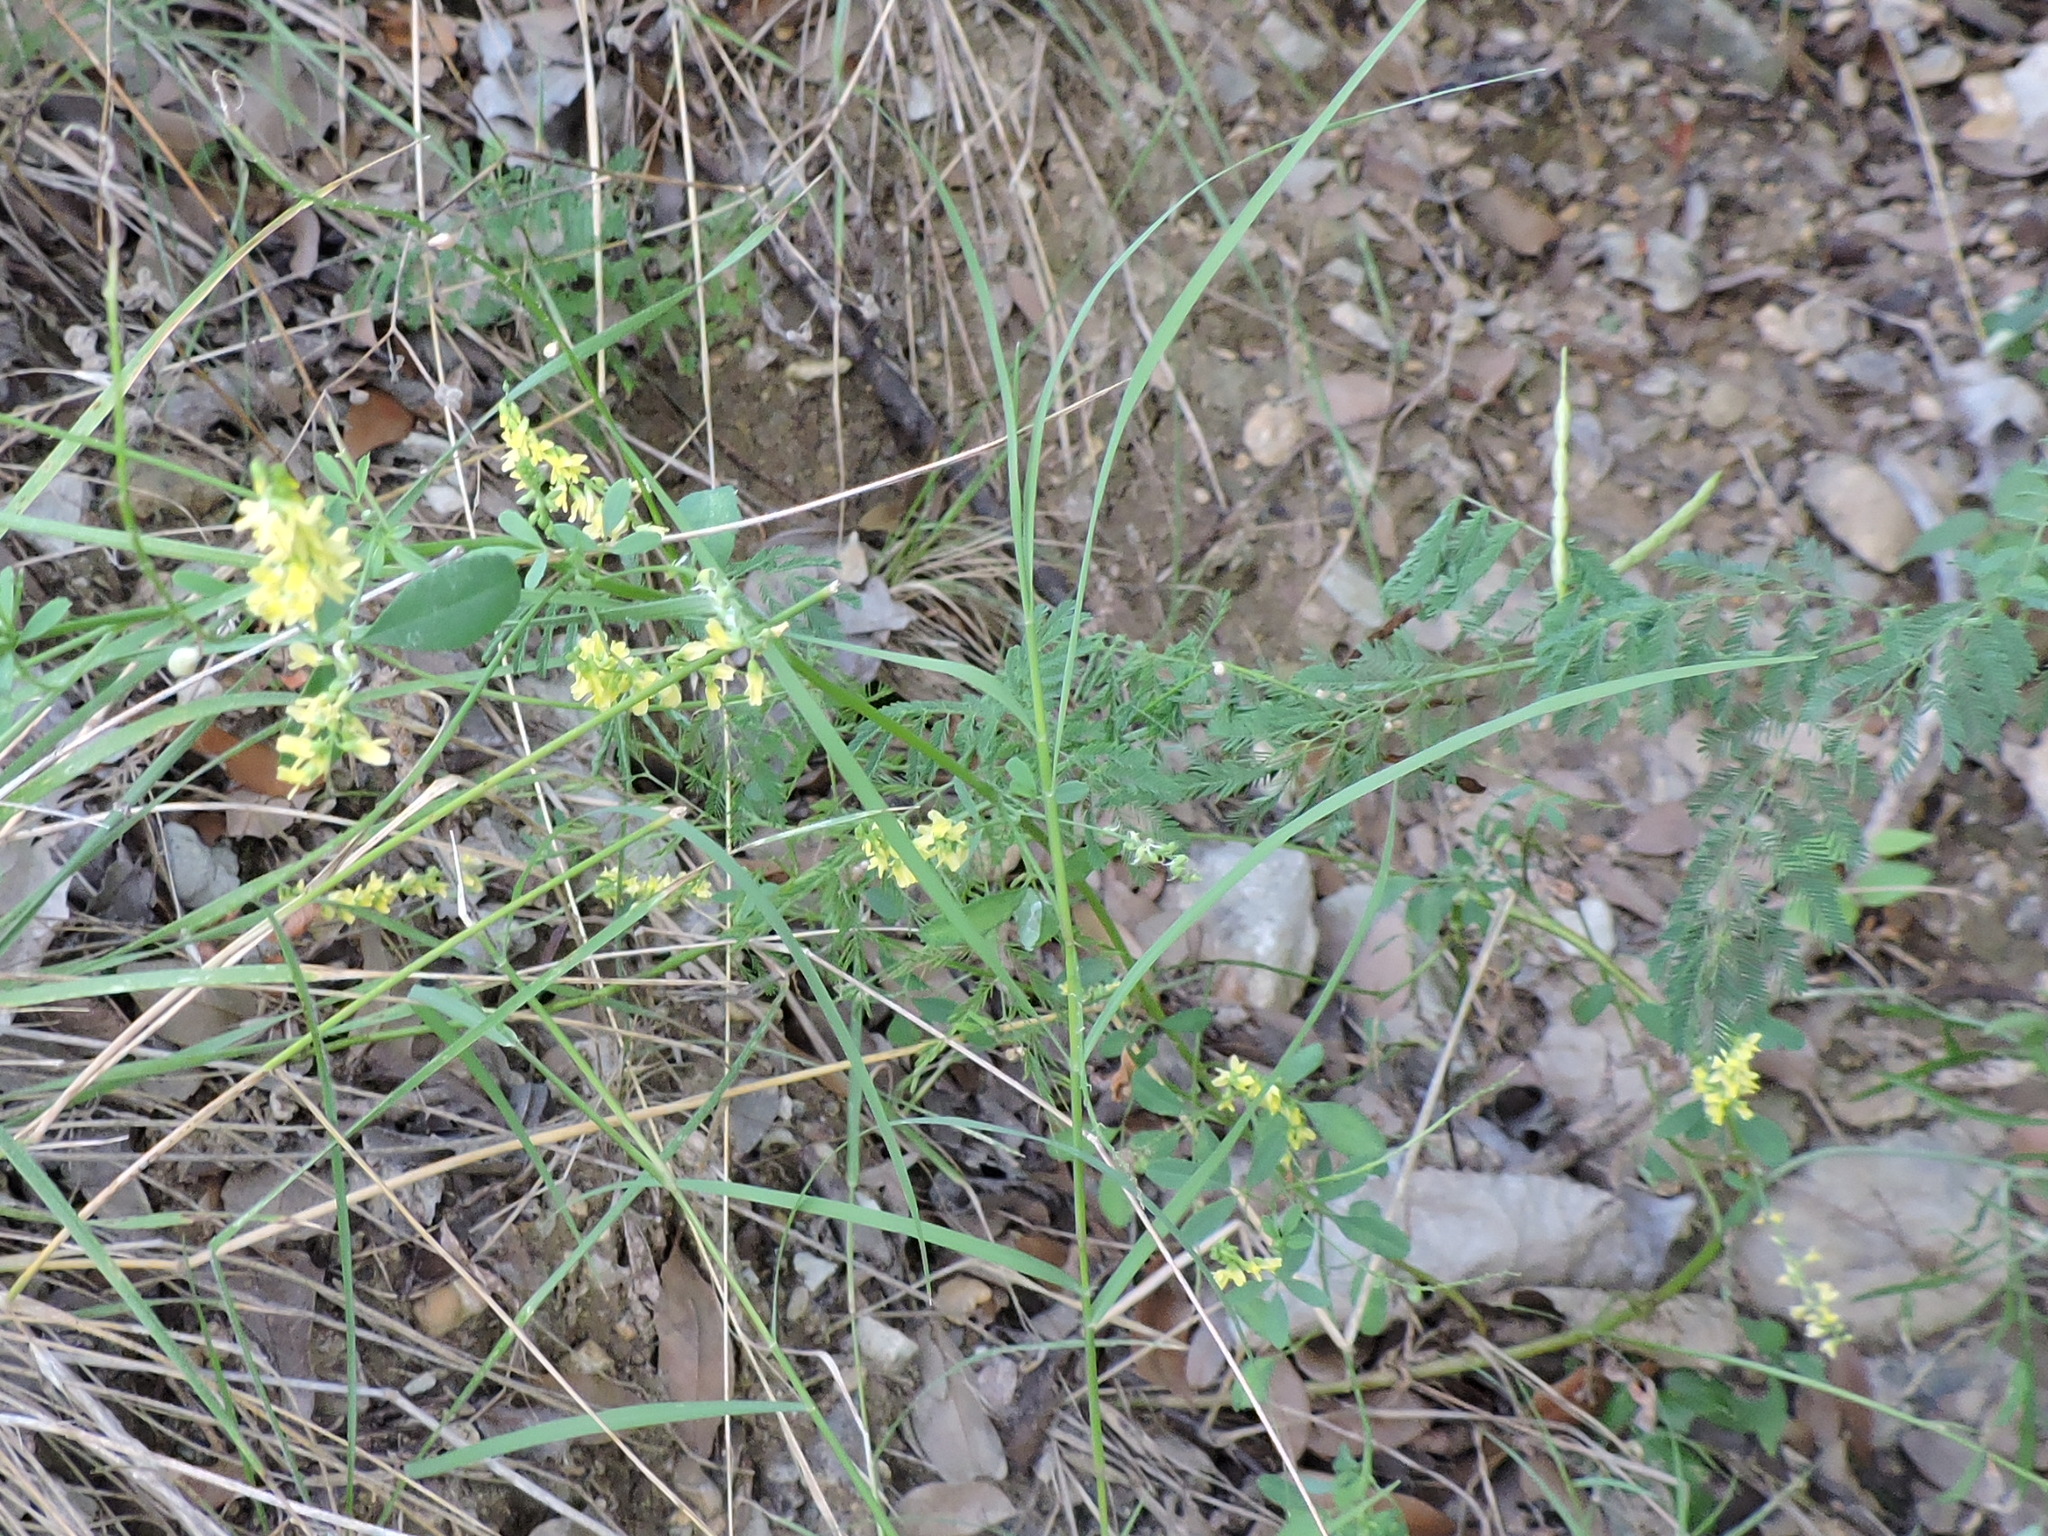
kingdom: Plantae
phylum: Tracheophyta
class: Magnoliopsida
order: Fabales
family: Fabaceae
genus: Melilotus
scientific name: Melilotus officinalis
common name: Sweetclover
